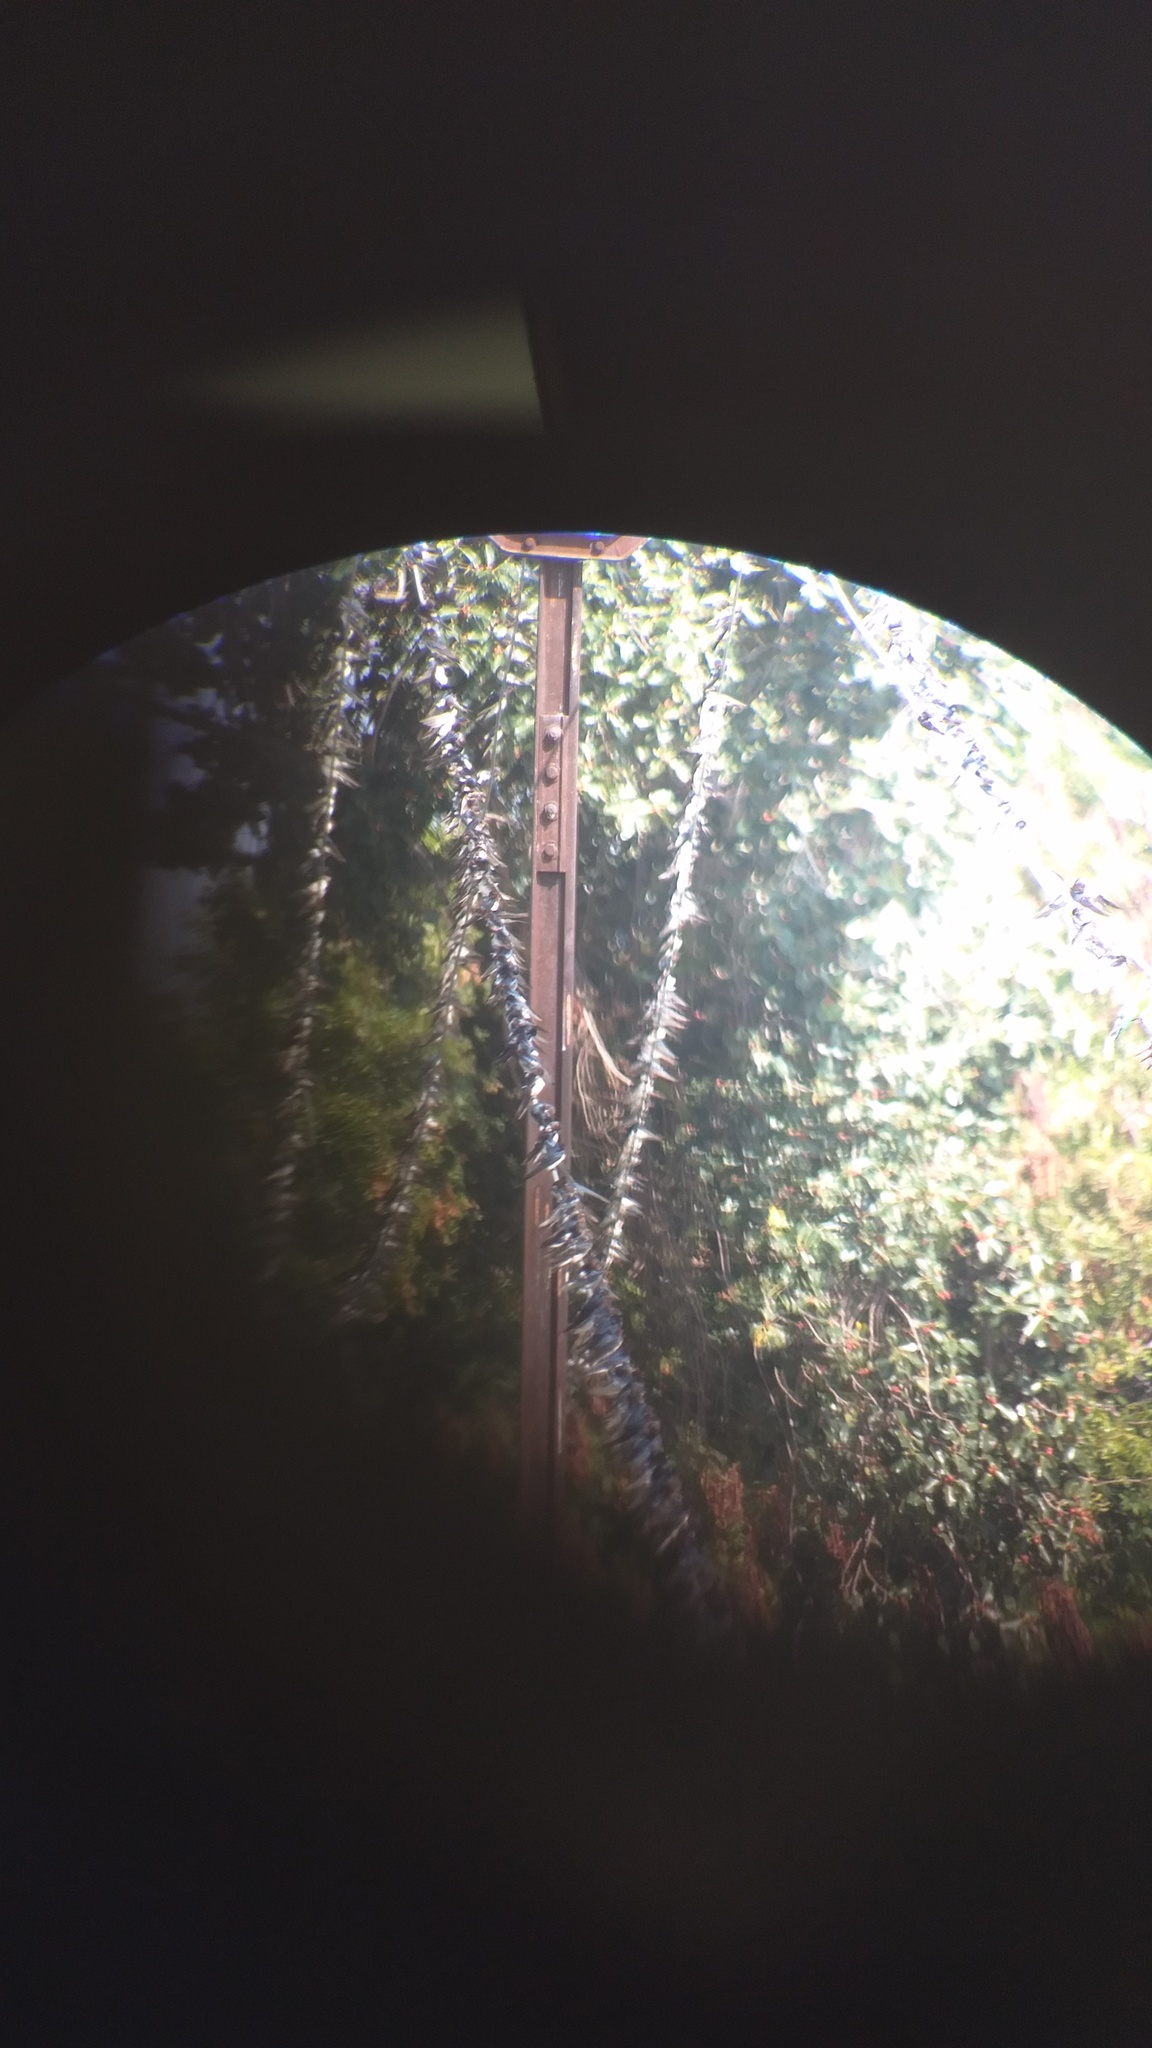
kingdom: Animalia
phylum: Chordata
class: Aves
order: Passeriformes
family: Hirundinidae
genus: Hirundo
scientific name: Hirundo rustica
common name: Barn swallow
